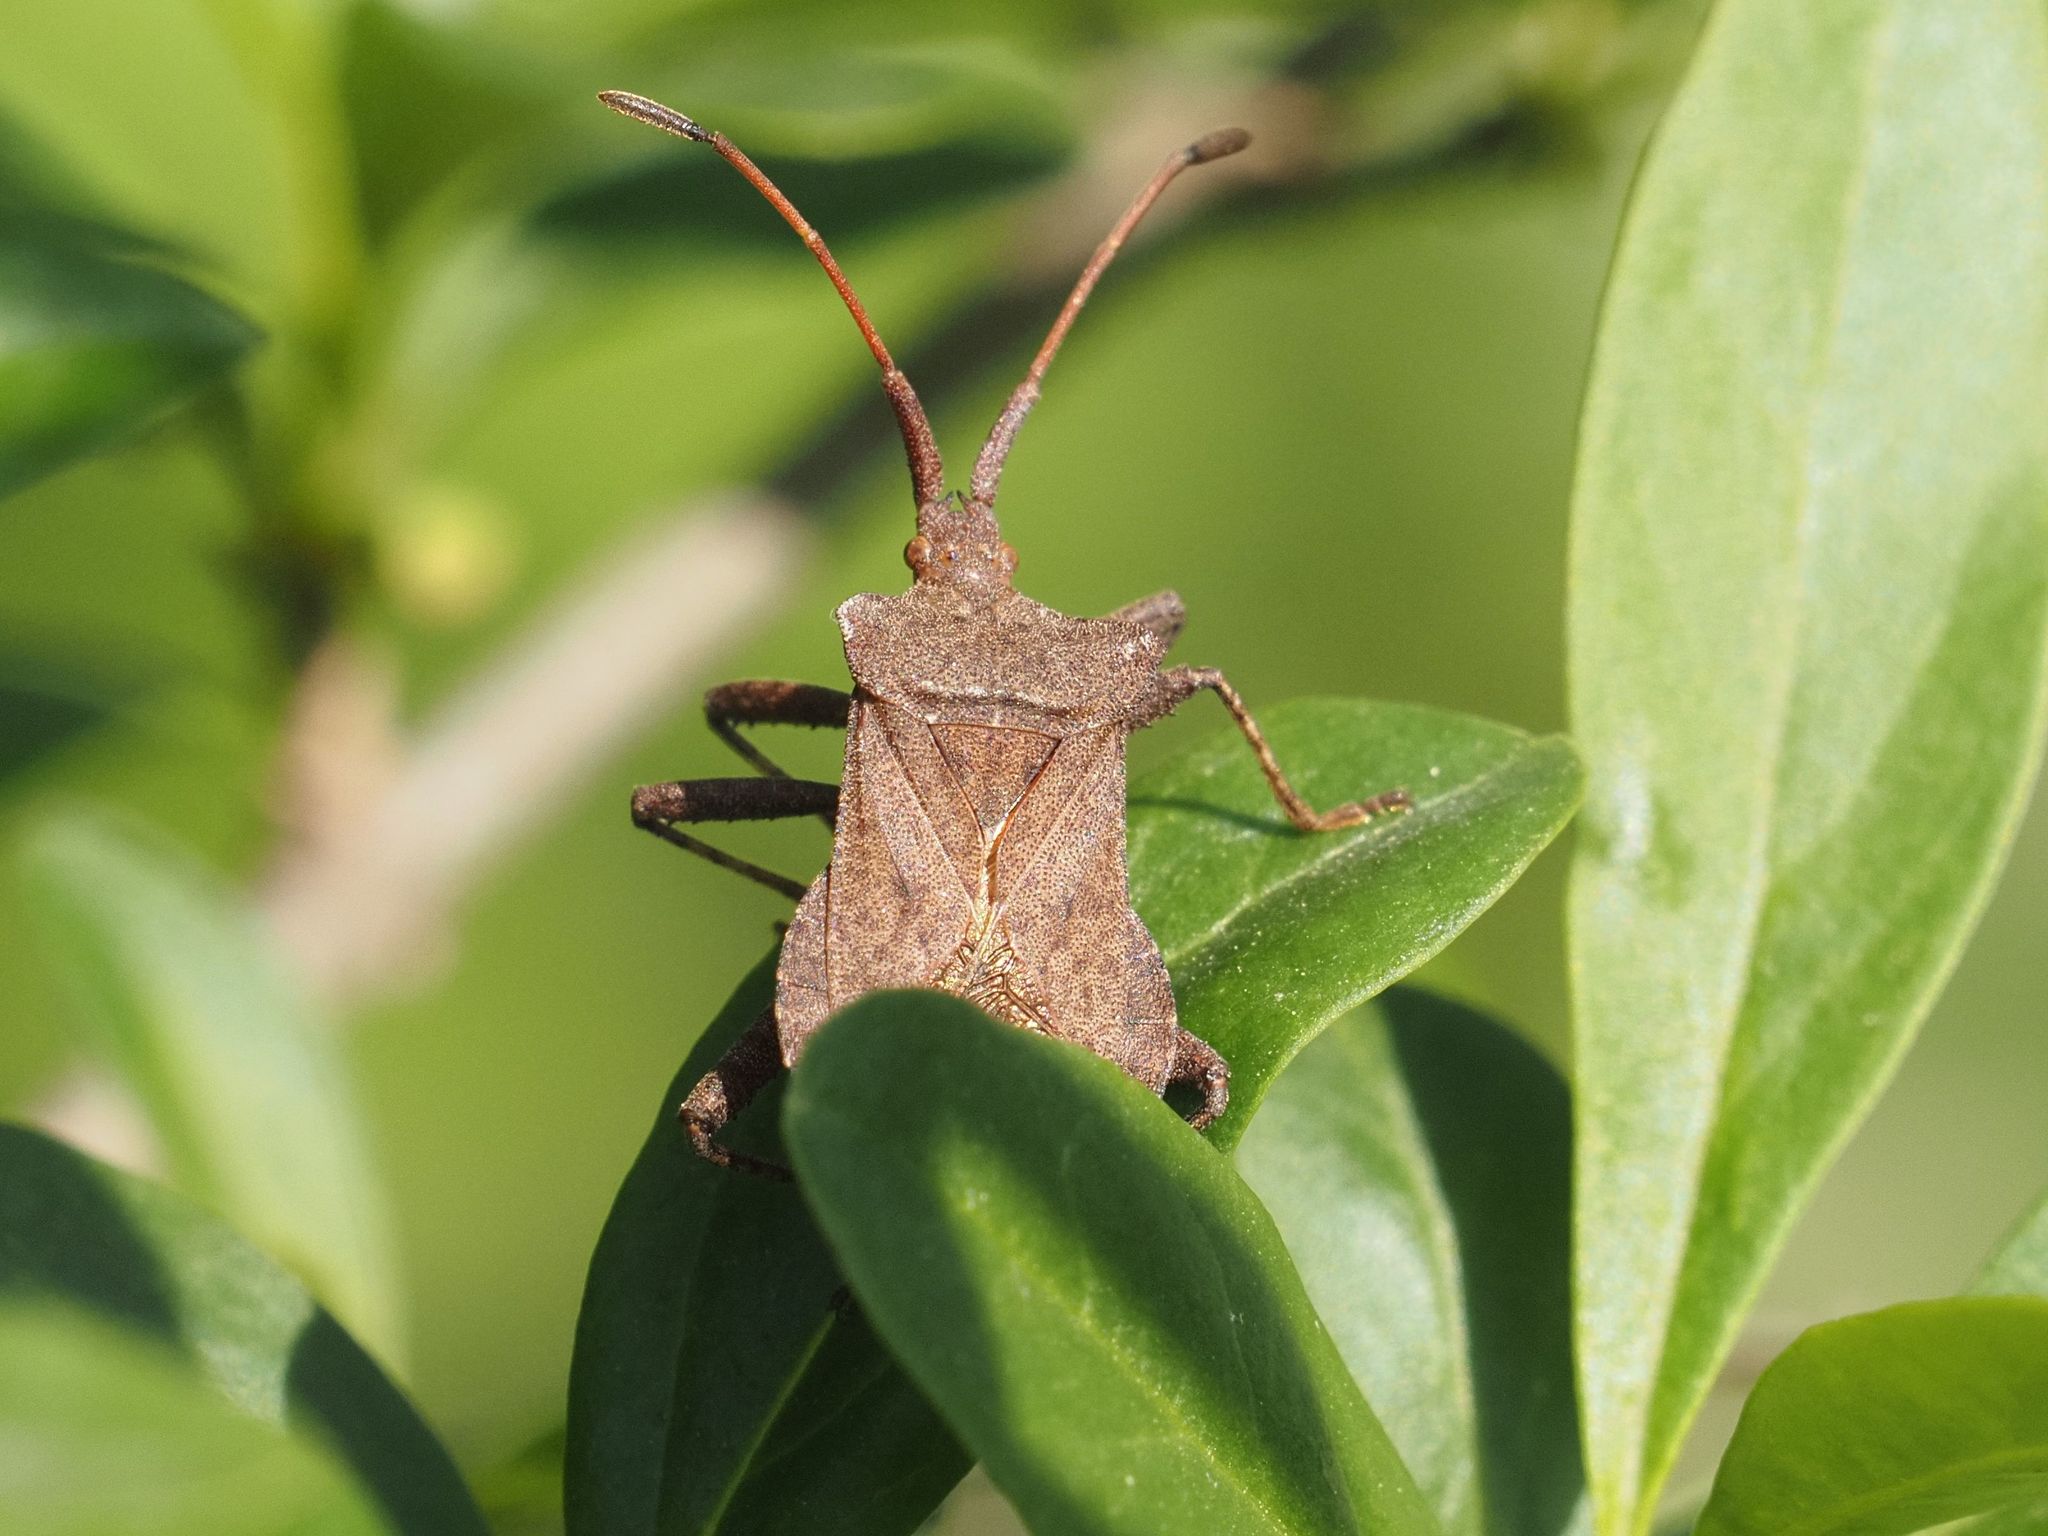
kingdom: Animalia
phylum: Arthropoda
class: Insecta
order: Hemiptera
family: Coreidae
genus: Coreus
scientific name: Coreus marginatus
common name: Dock bug
